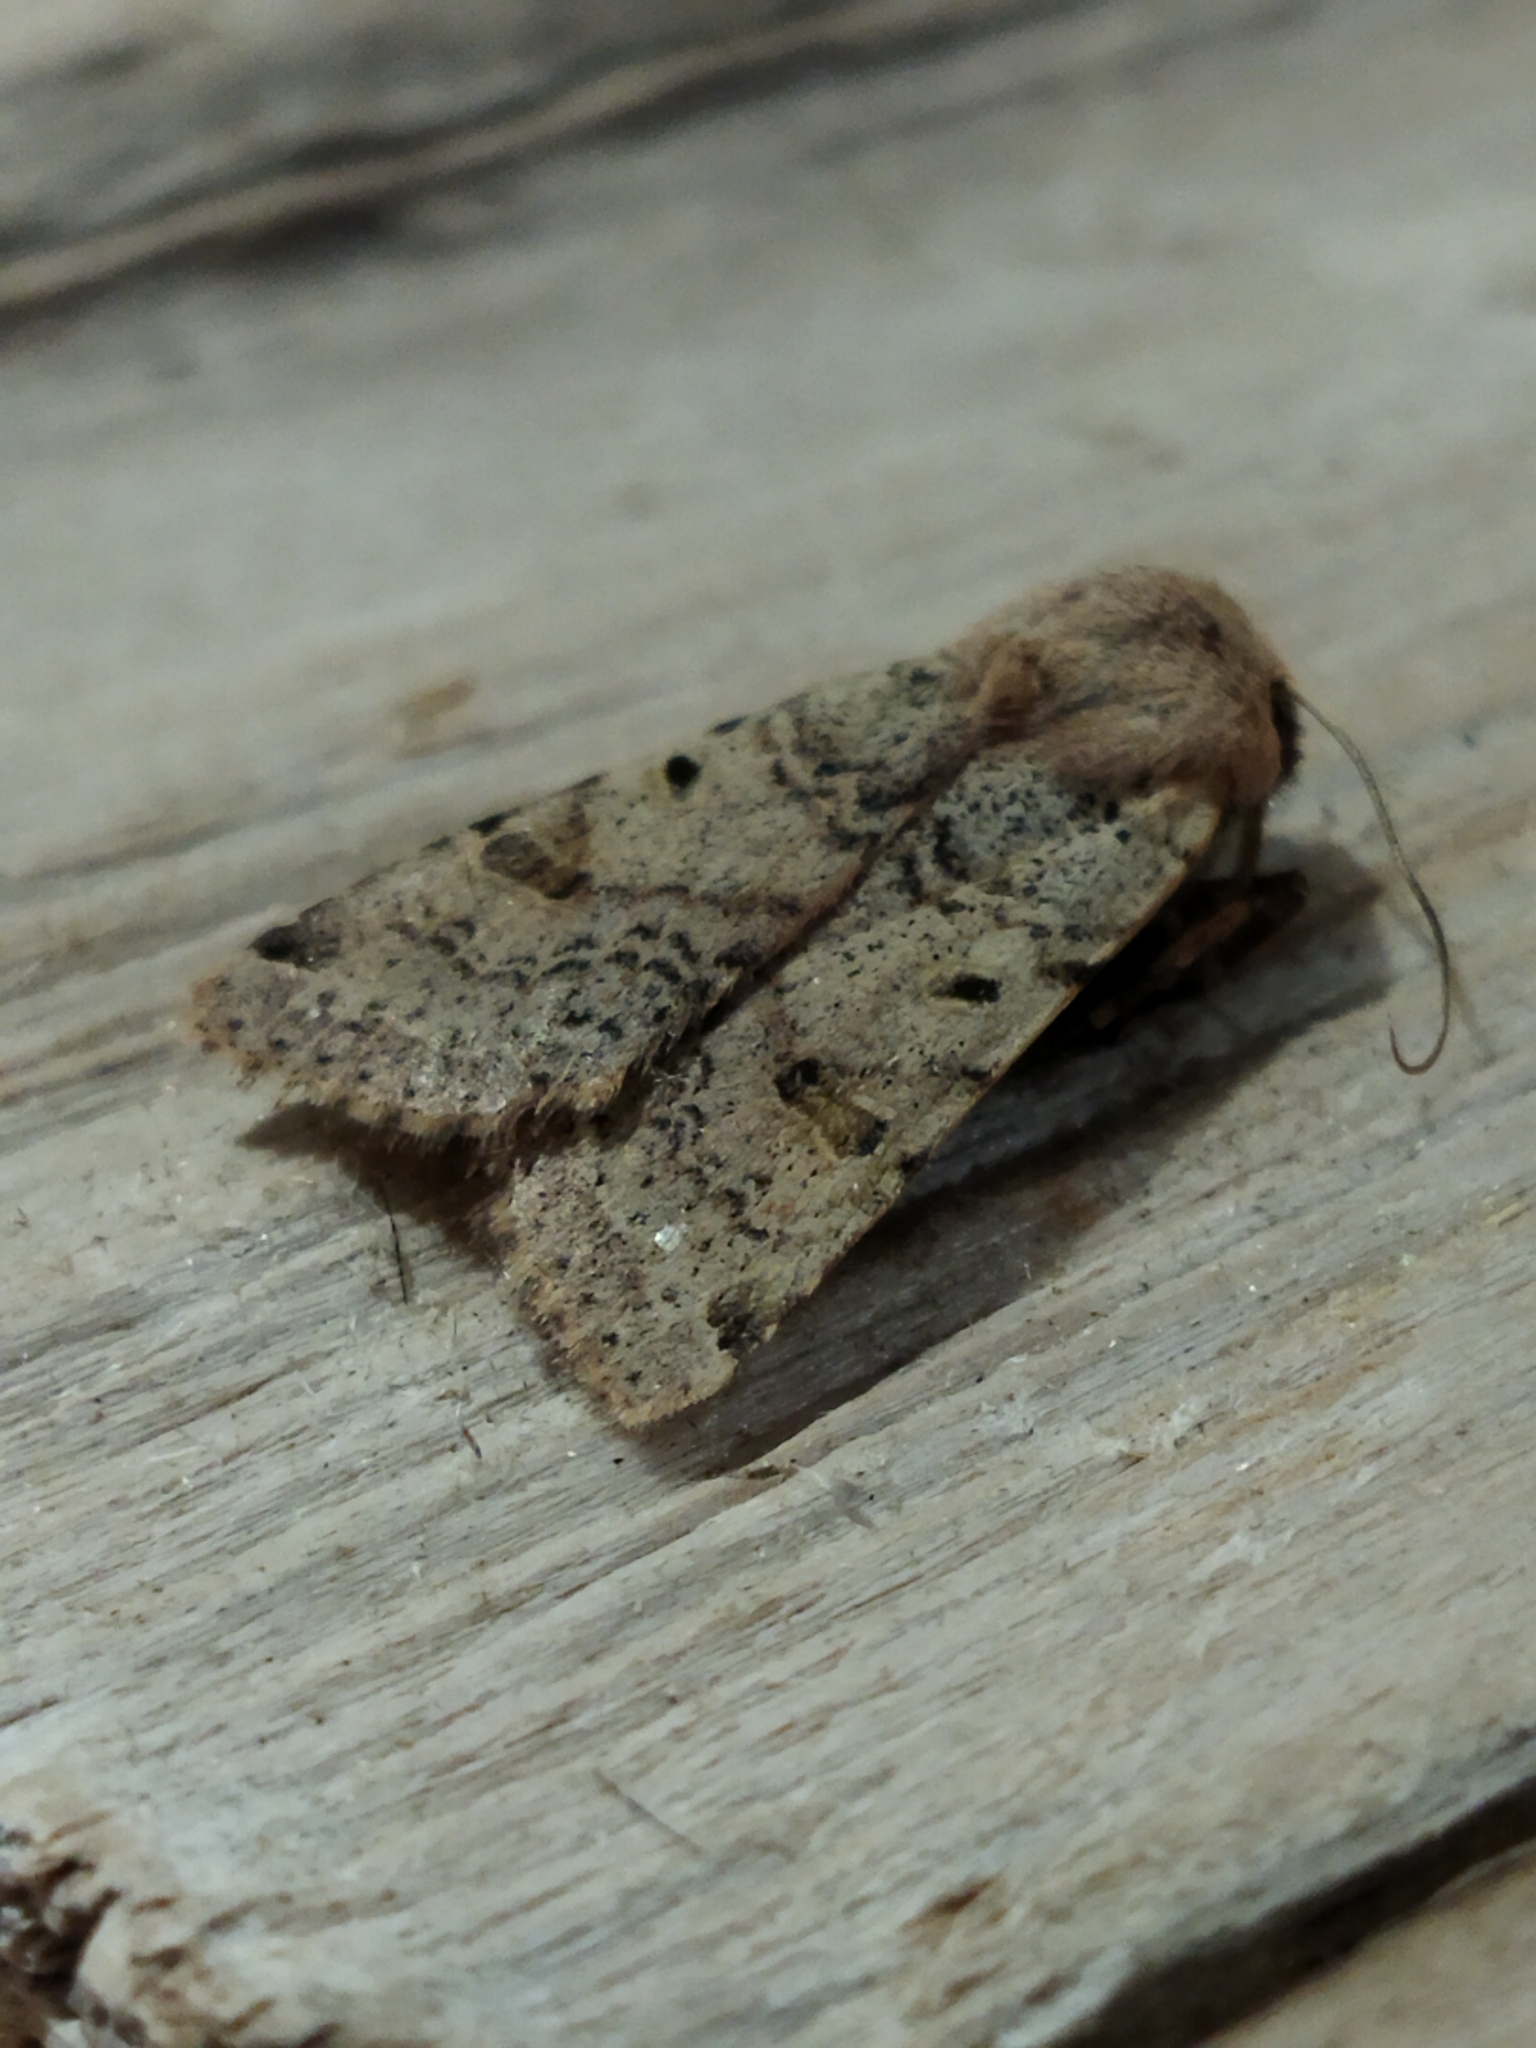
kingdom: Animalia
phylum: Arthropoda
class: Insecta
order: Lepidoptera
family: Noctuidae
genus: Agrochola
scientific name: Agrochola lychnidis
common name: Beaded chestnut
